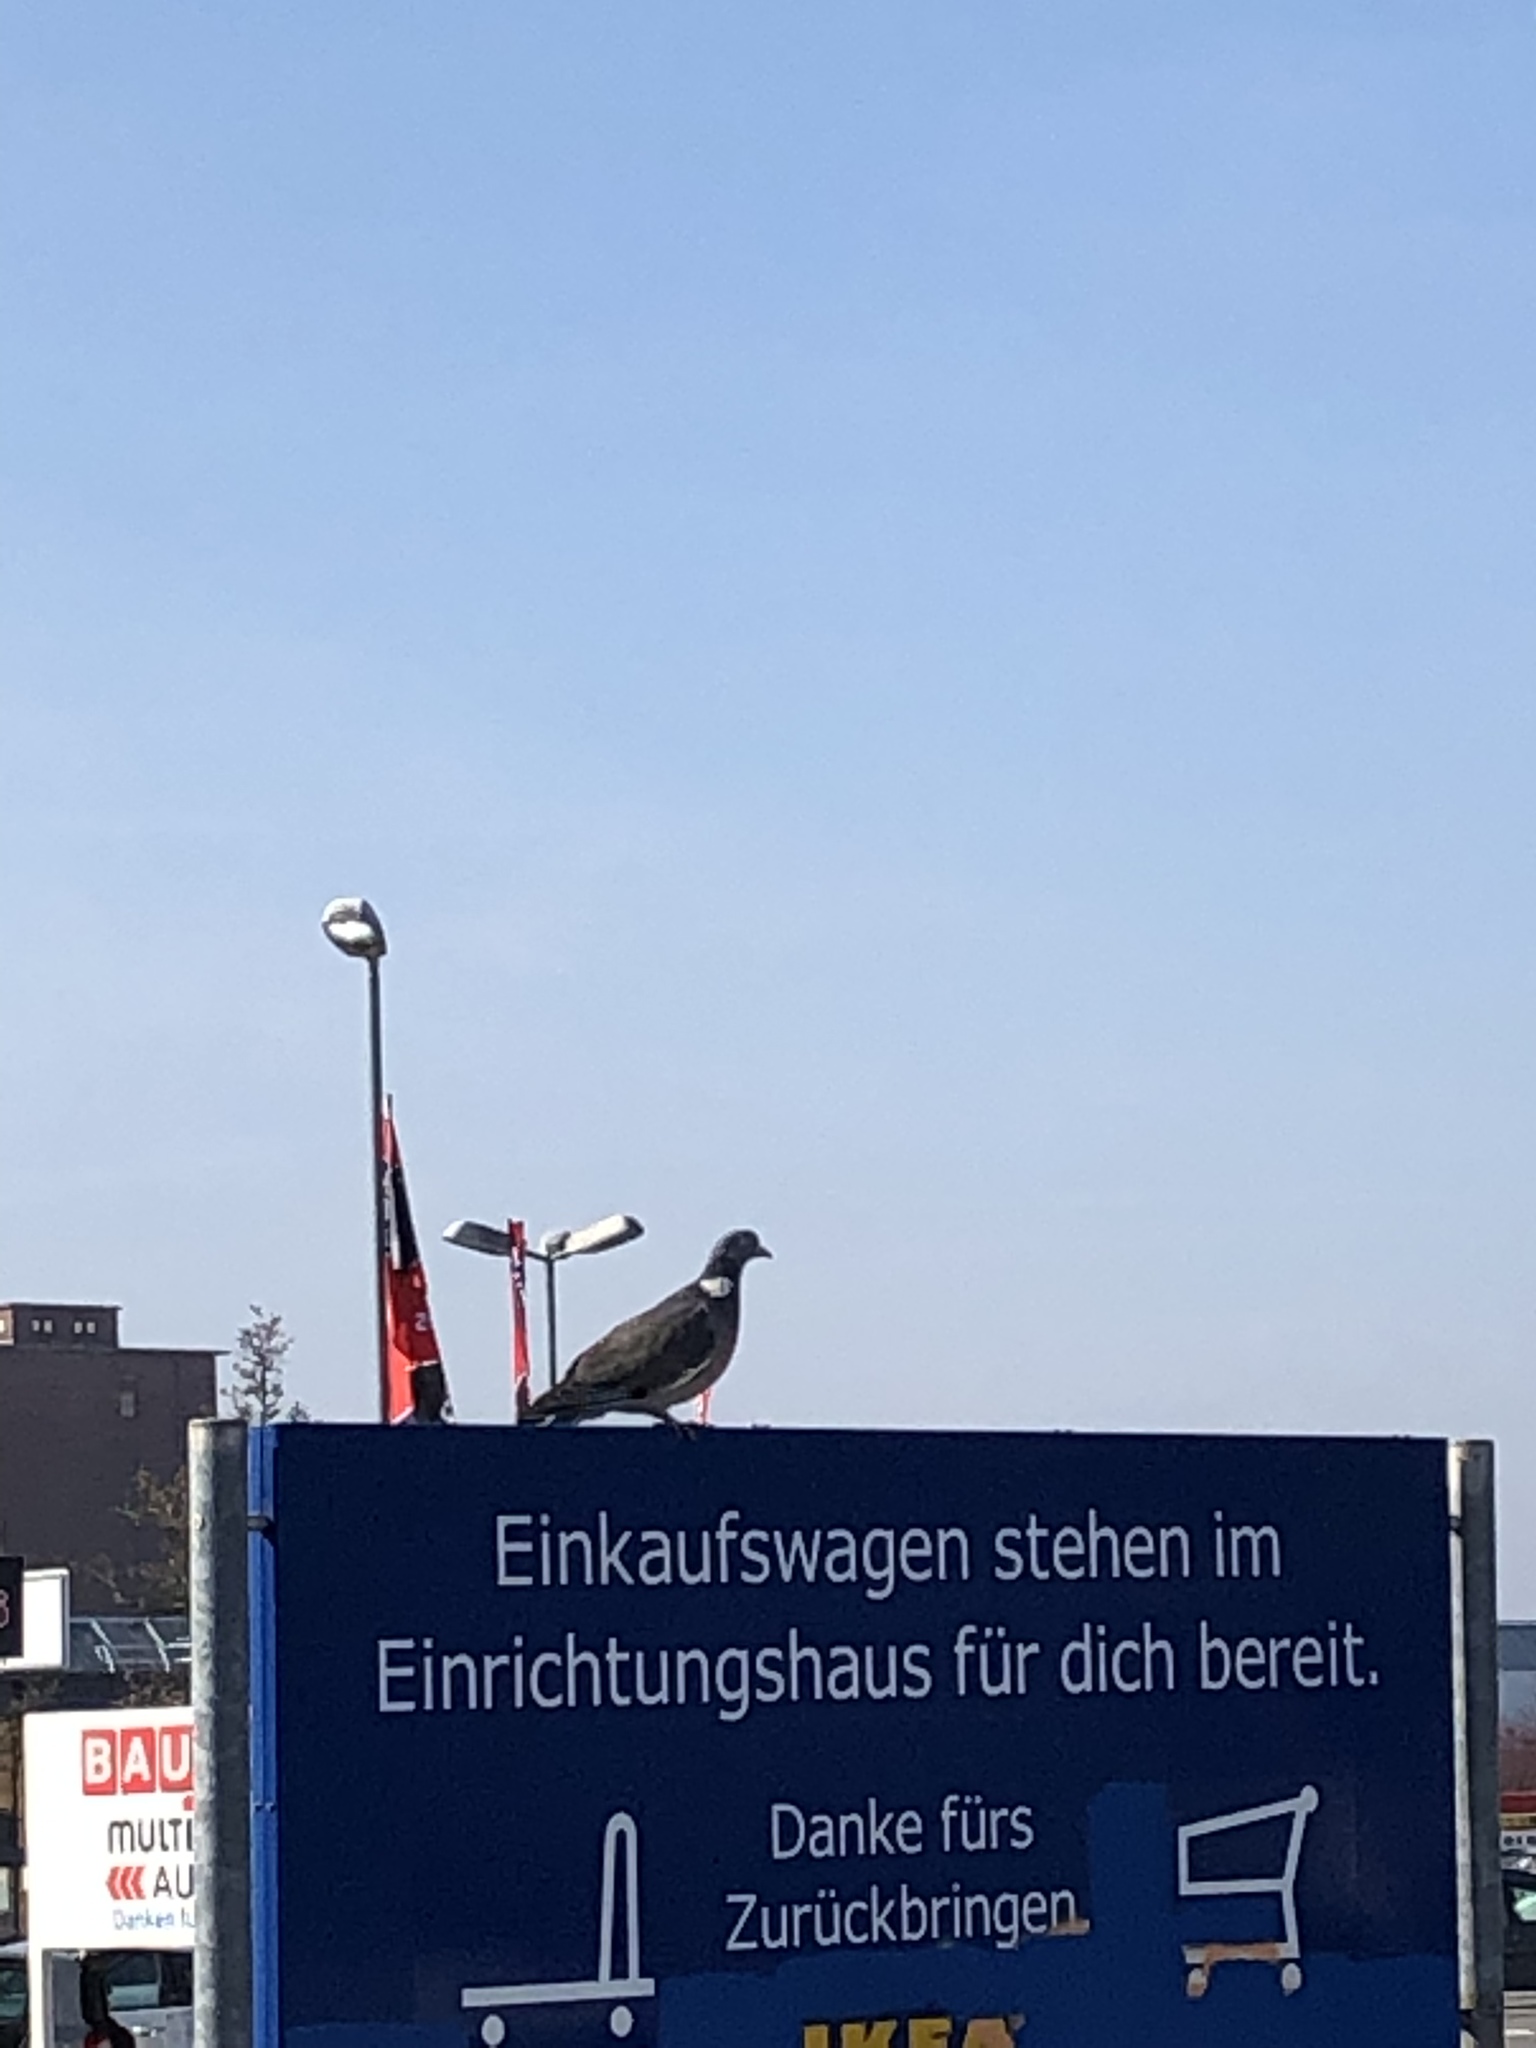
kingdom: Animalia
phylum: Chordata
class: Aves
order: Columbiformes
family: Columbidae
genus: Columba
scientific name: Columba palumbus
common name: Common wood pigeon
